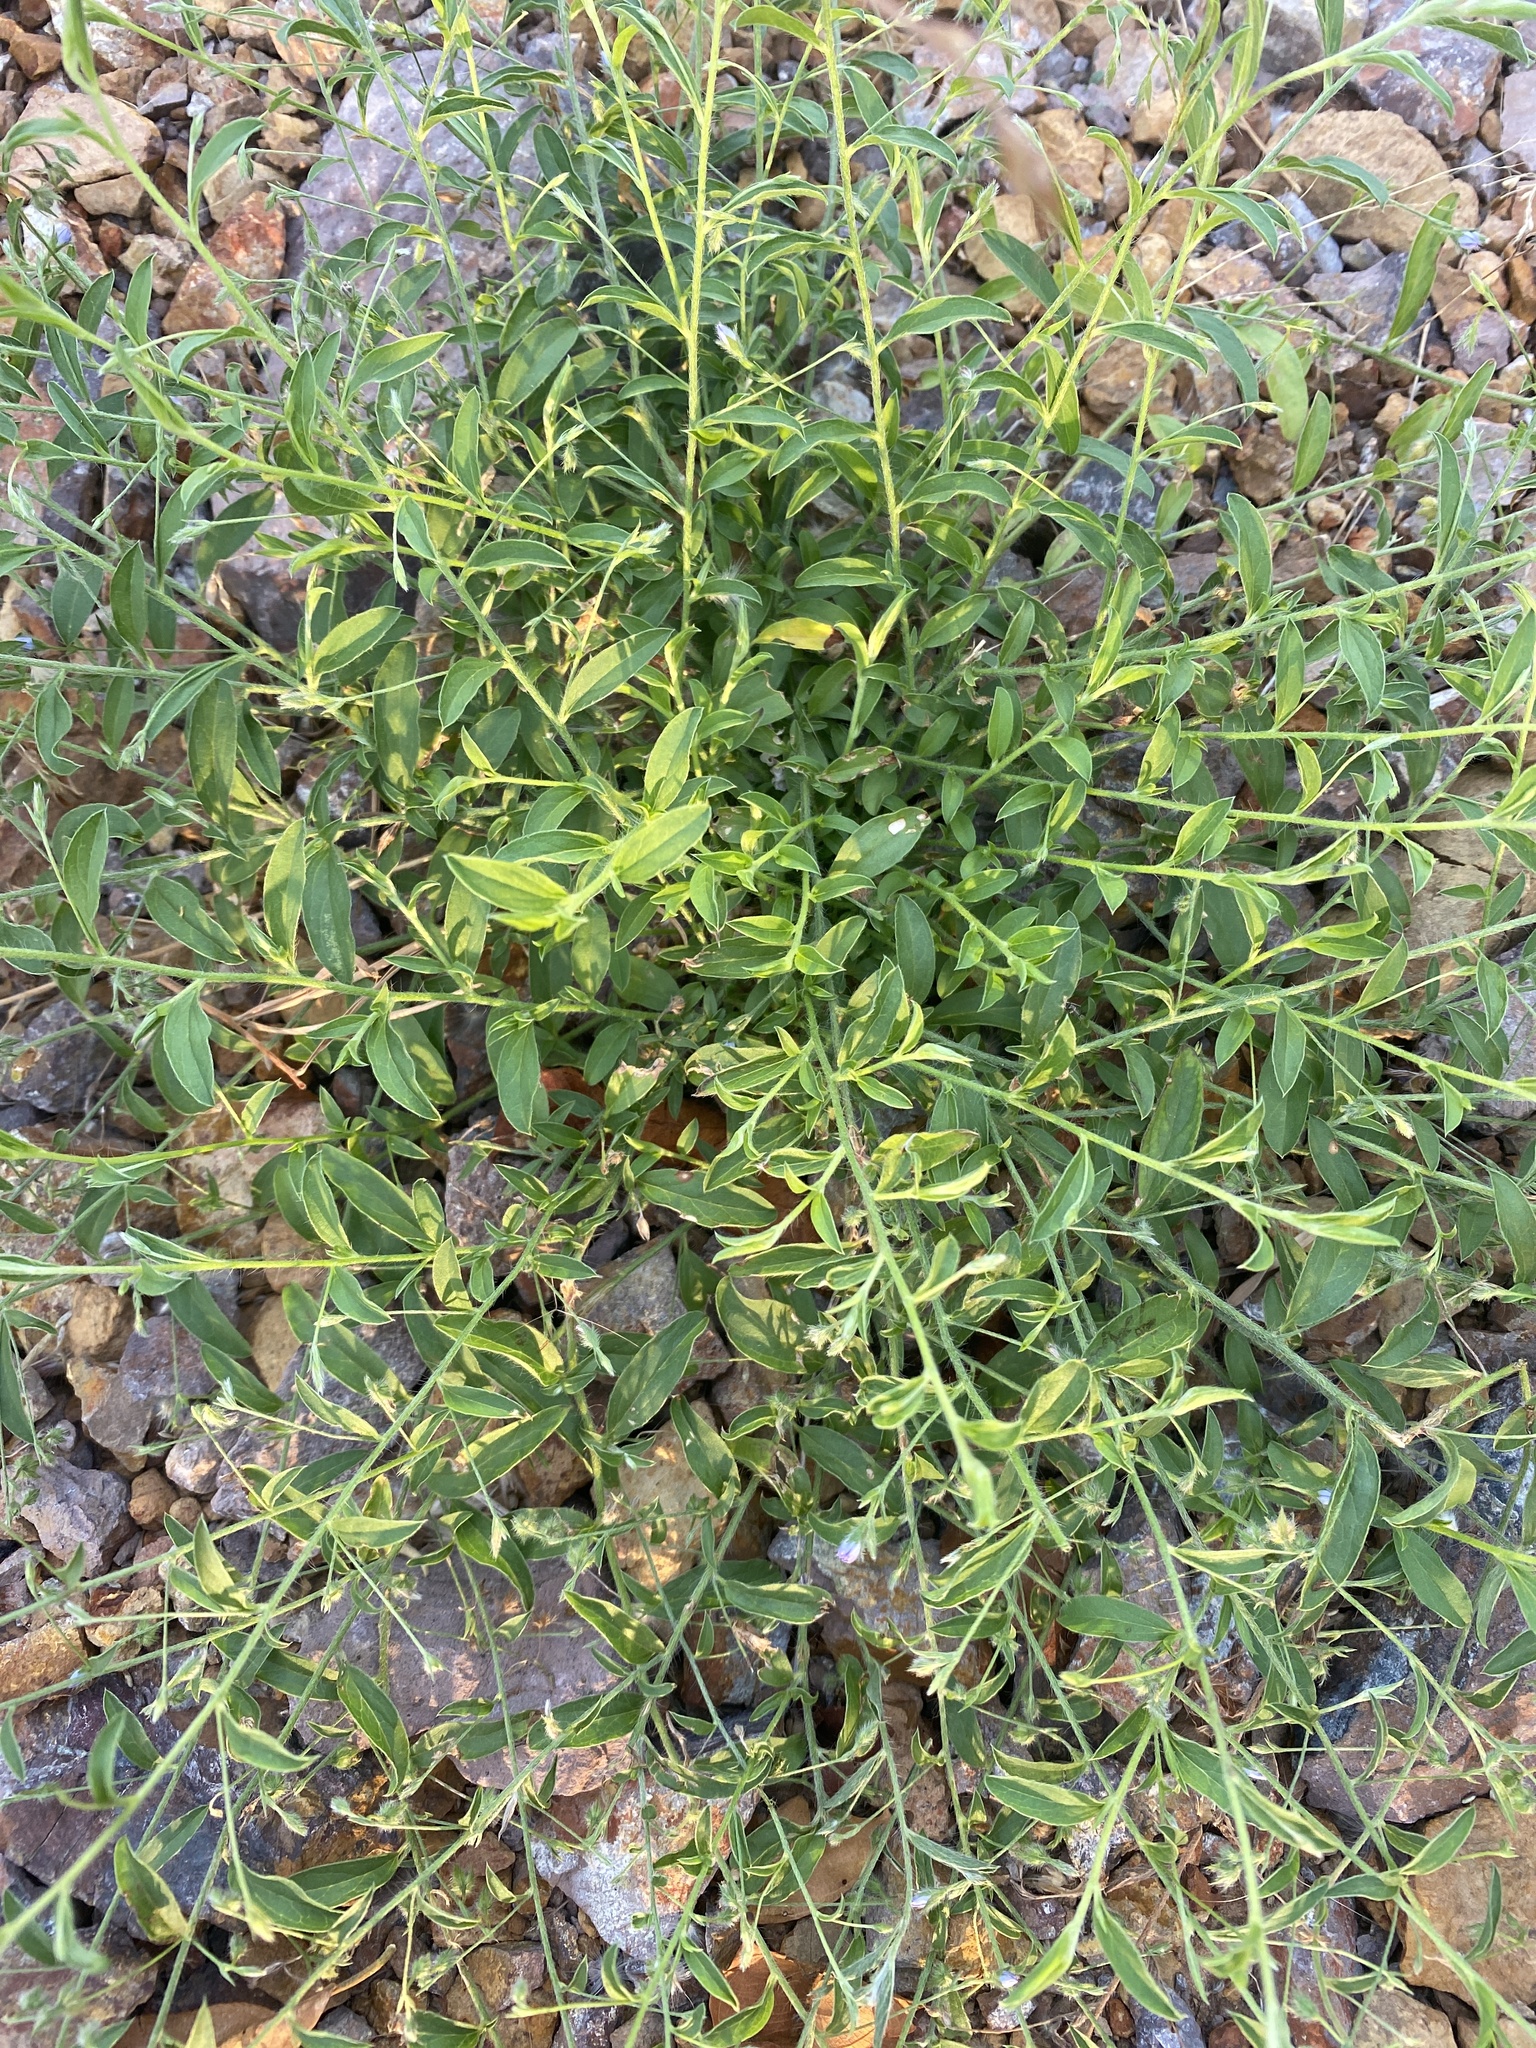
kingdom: Plantae
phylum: Tracheophyta
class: Magnoliopsida
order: Solanales
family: Convolvulaceae
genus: Evolvulus
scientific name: Evolvulus alsinoides
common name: Slender dwarf morning-glory
